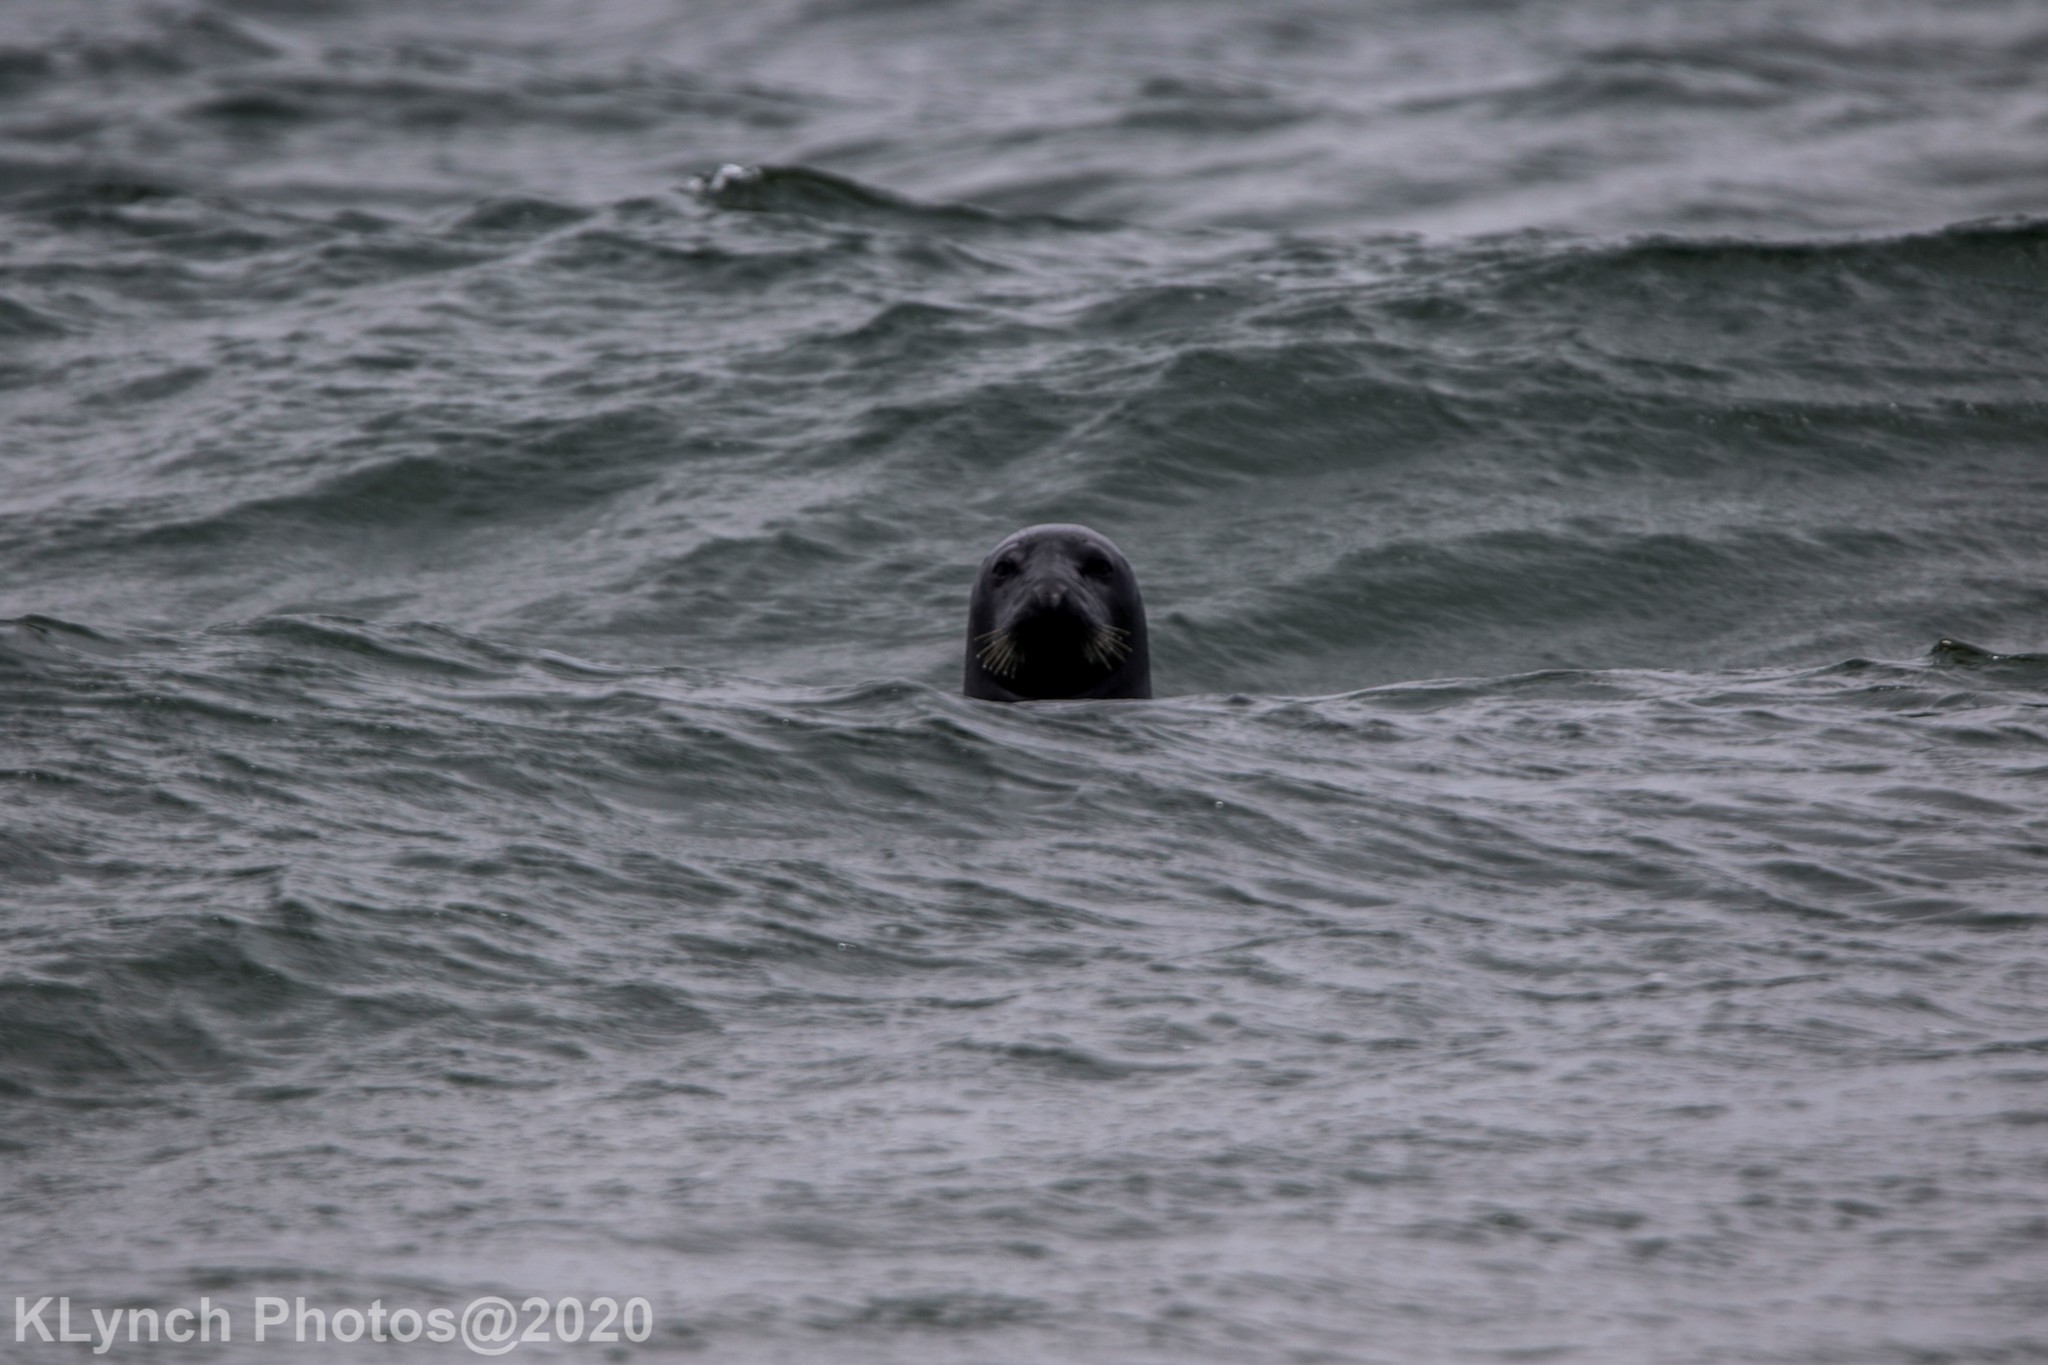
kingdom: Animalia
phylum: Chordata
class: Mammalia
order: Carnivora
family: Phocidae
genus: Halichoerus
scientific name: Halichoerus grypus
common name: Grey seal
